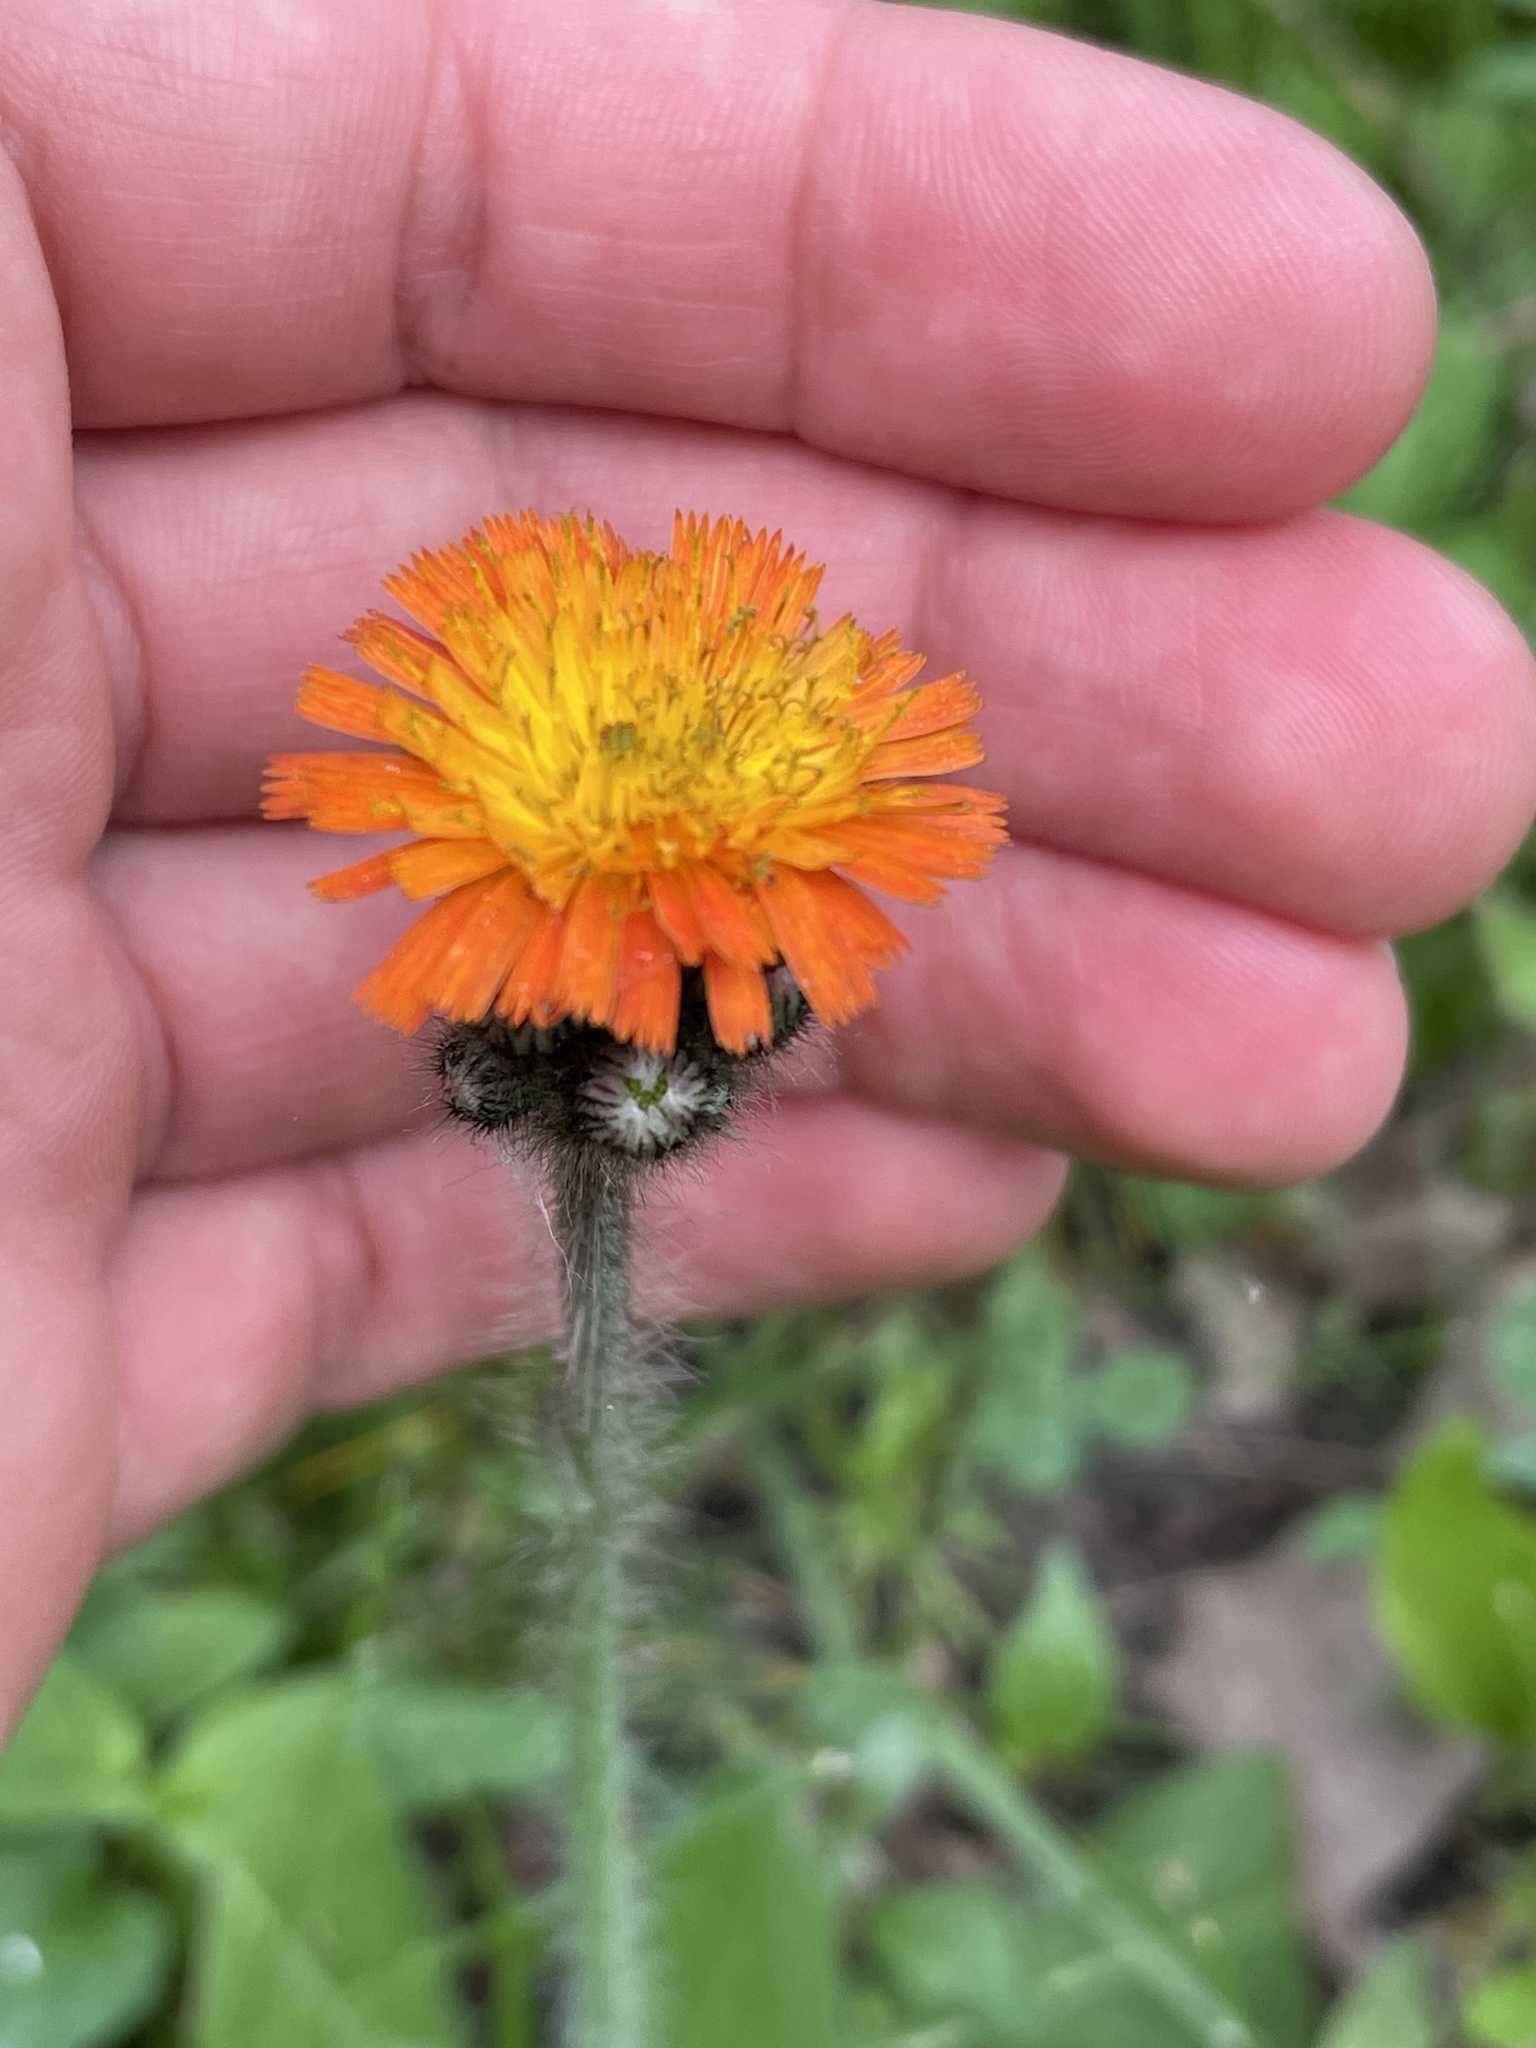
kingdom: Plantae
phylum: Tracheophyta
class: Magnoliopsida
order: Asterales
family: Asteraceae
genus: Pilosella
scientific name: Pilosella aurantiaca
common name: Fox-and-cubs
